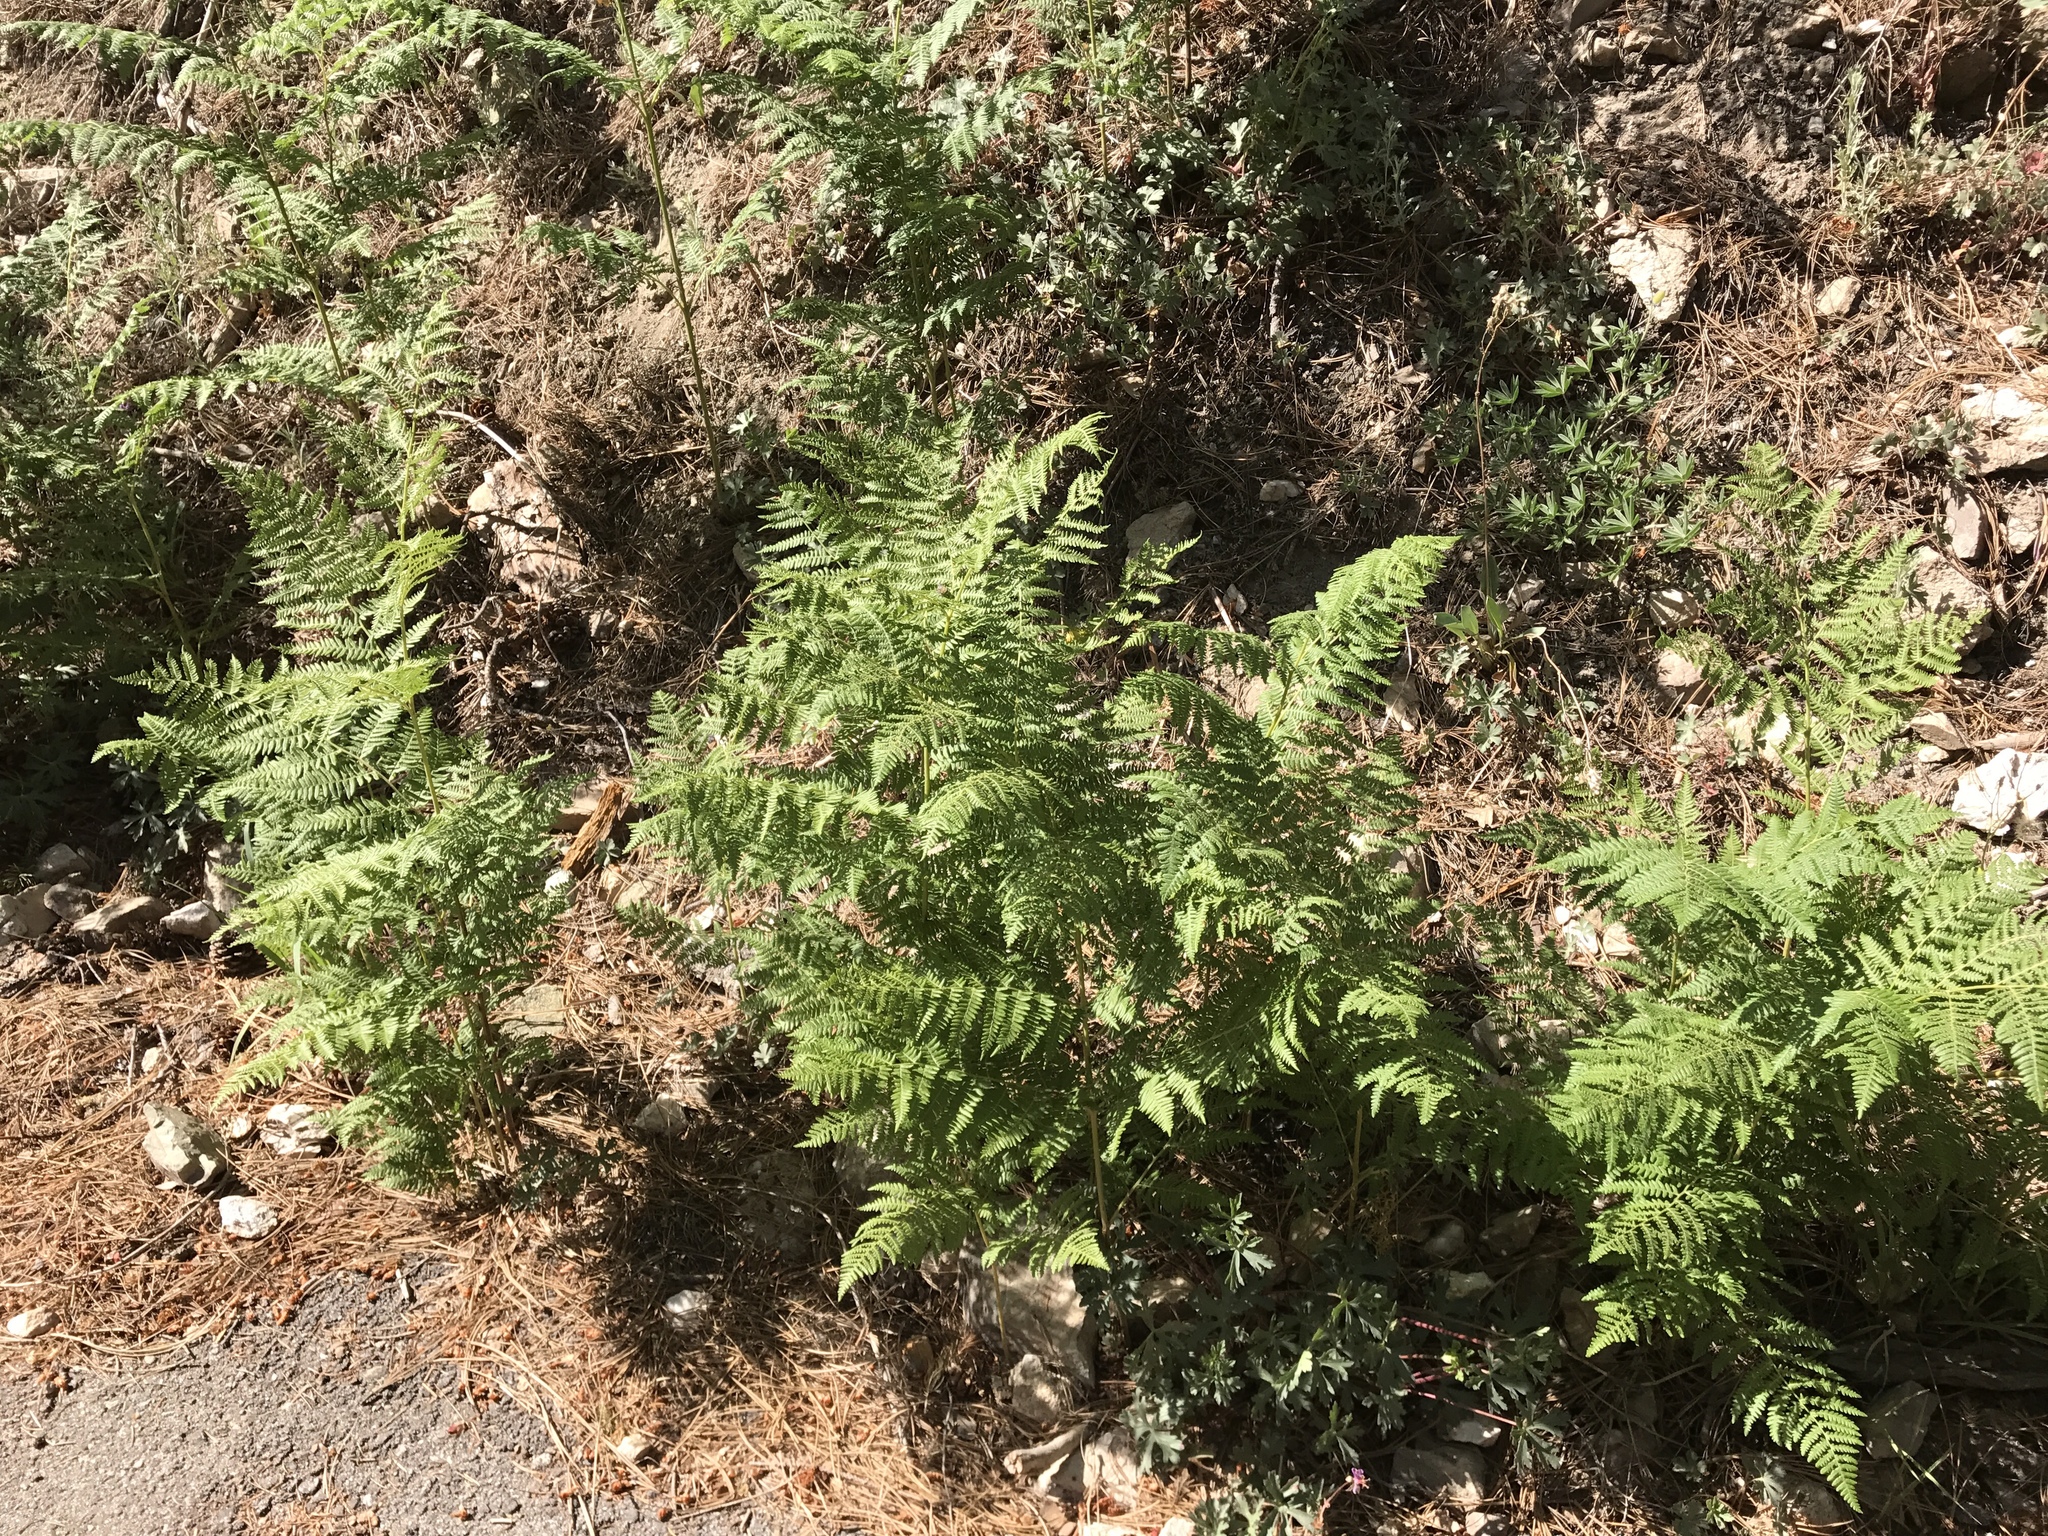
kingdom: Plantae
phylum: Tracheophyta
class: Polypodiopsida
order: Polypodiales
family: Dennstaedtiaceae
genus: Pteridium
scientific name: Pteridium aquilinum
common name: Bracken
